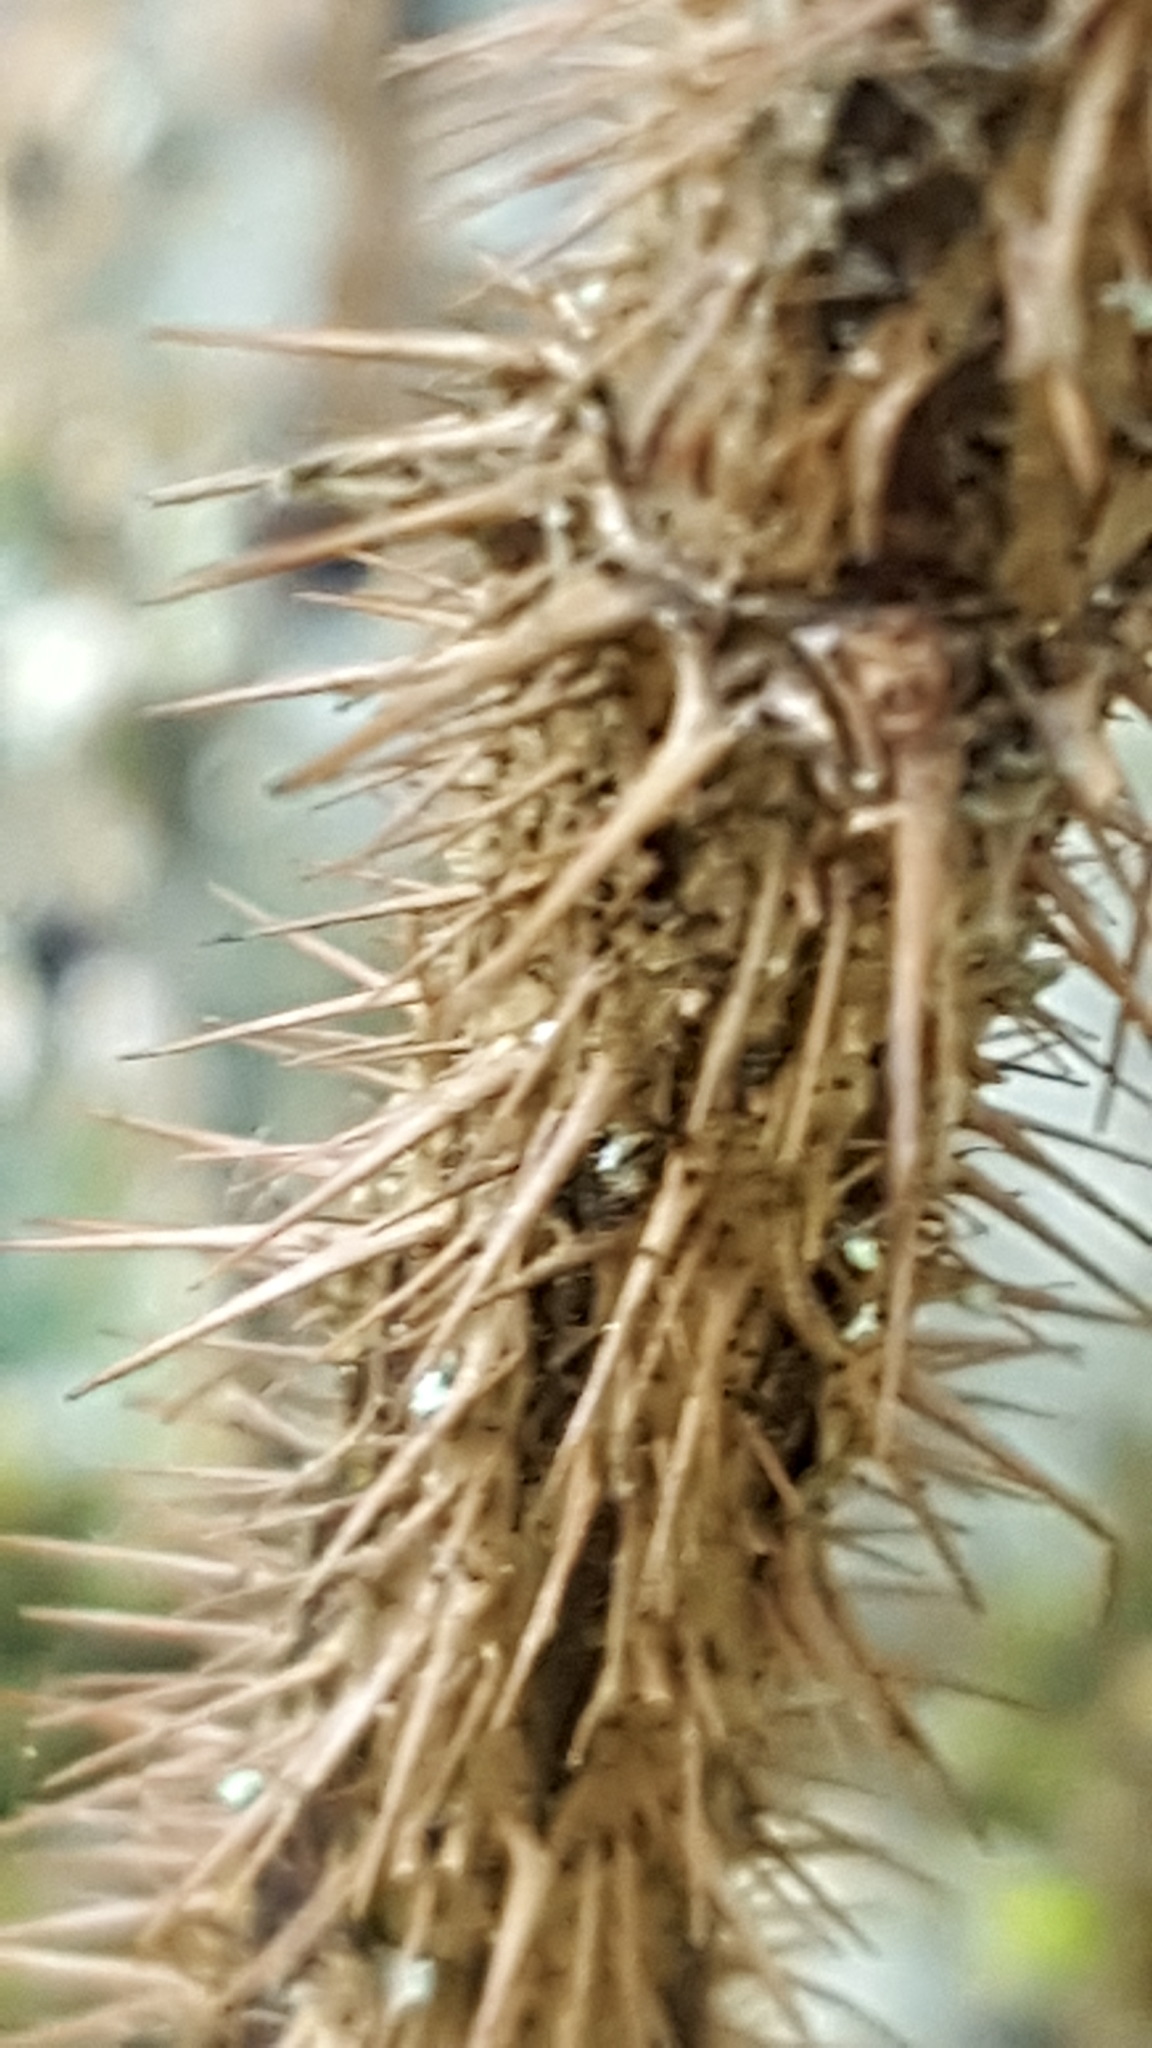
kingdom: Plantae
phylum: Tracheophyta
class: Magnoliopsida
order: Saxifragales
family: Grossulariaceae
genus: Ribes
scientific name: Ribes lacustre
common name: Black gooseberry
